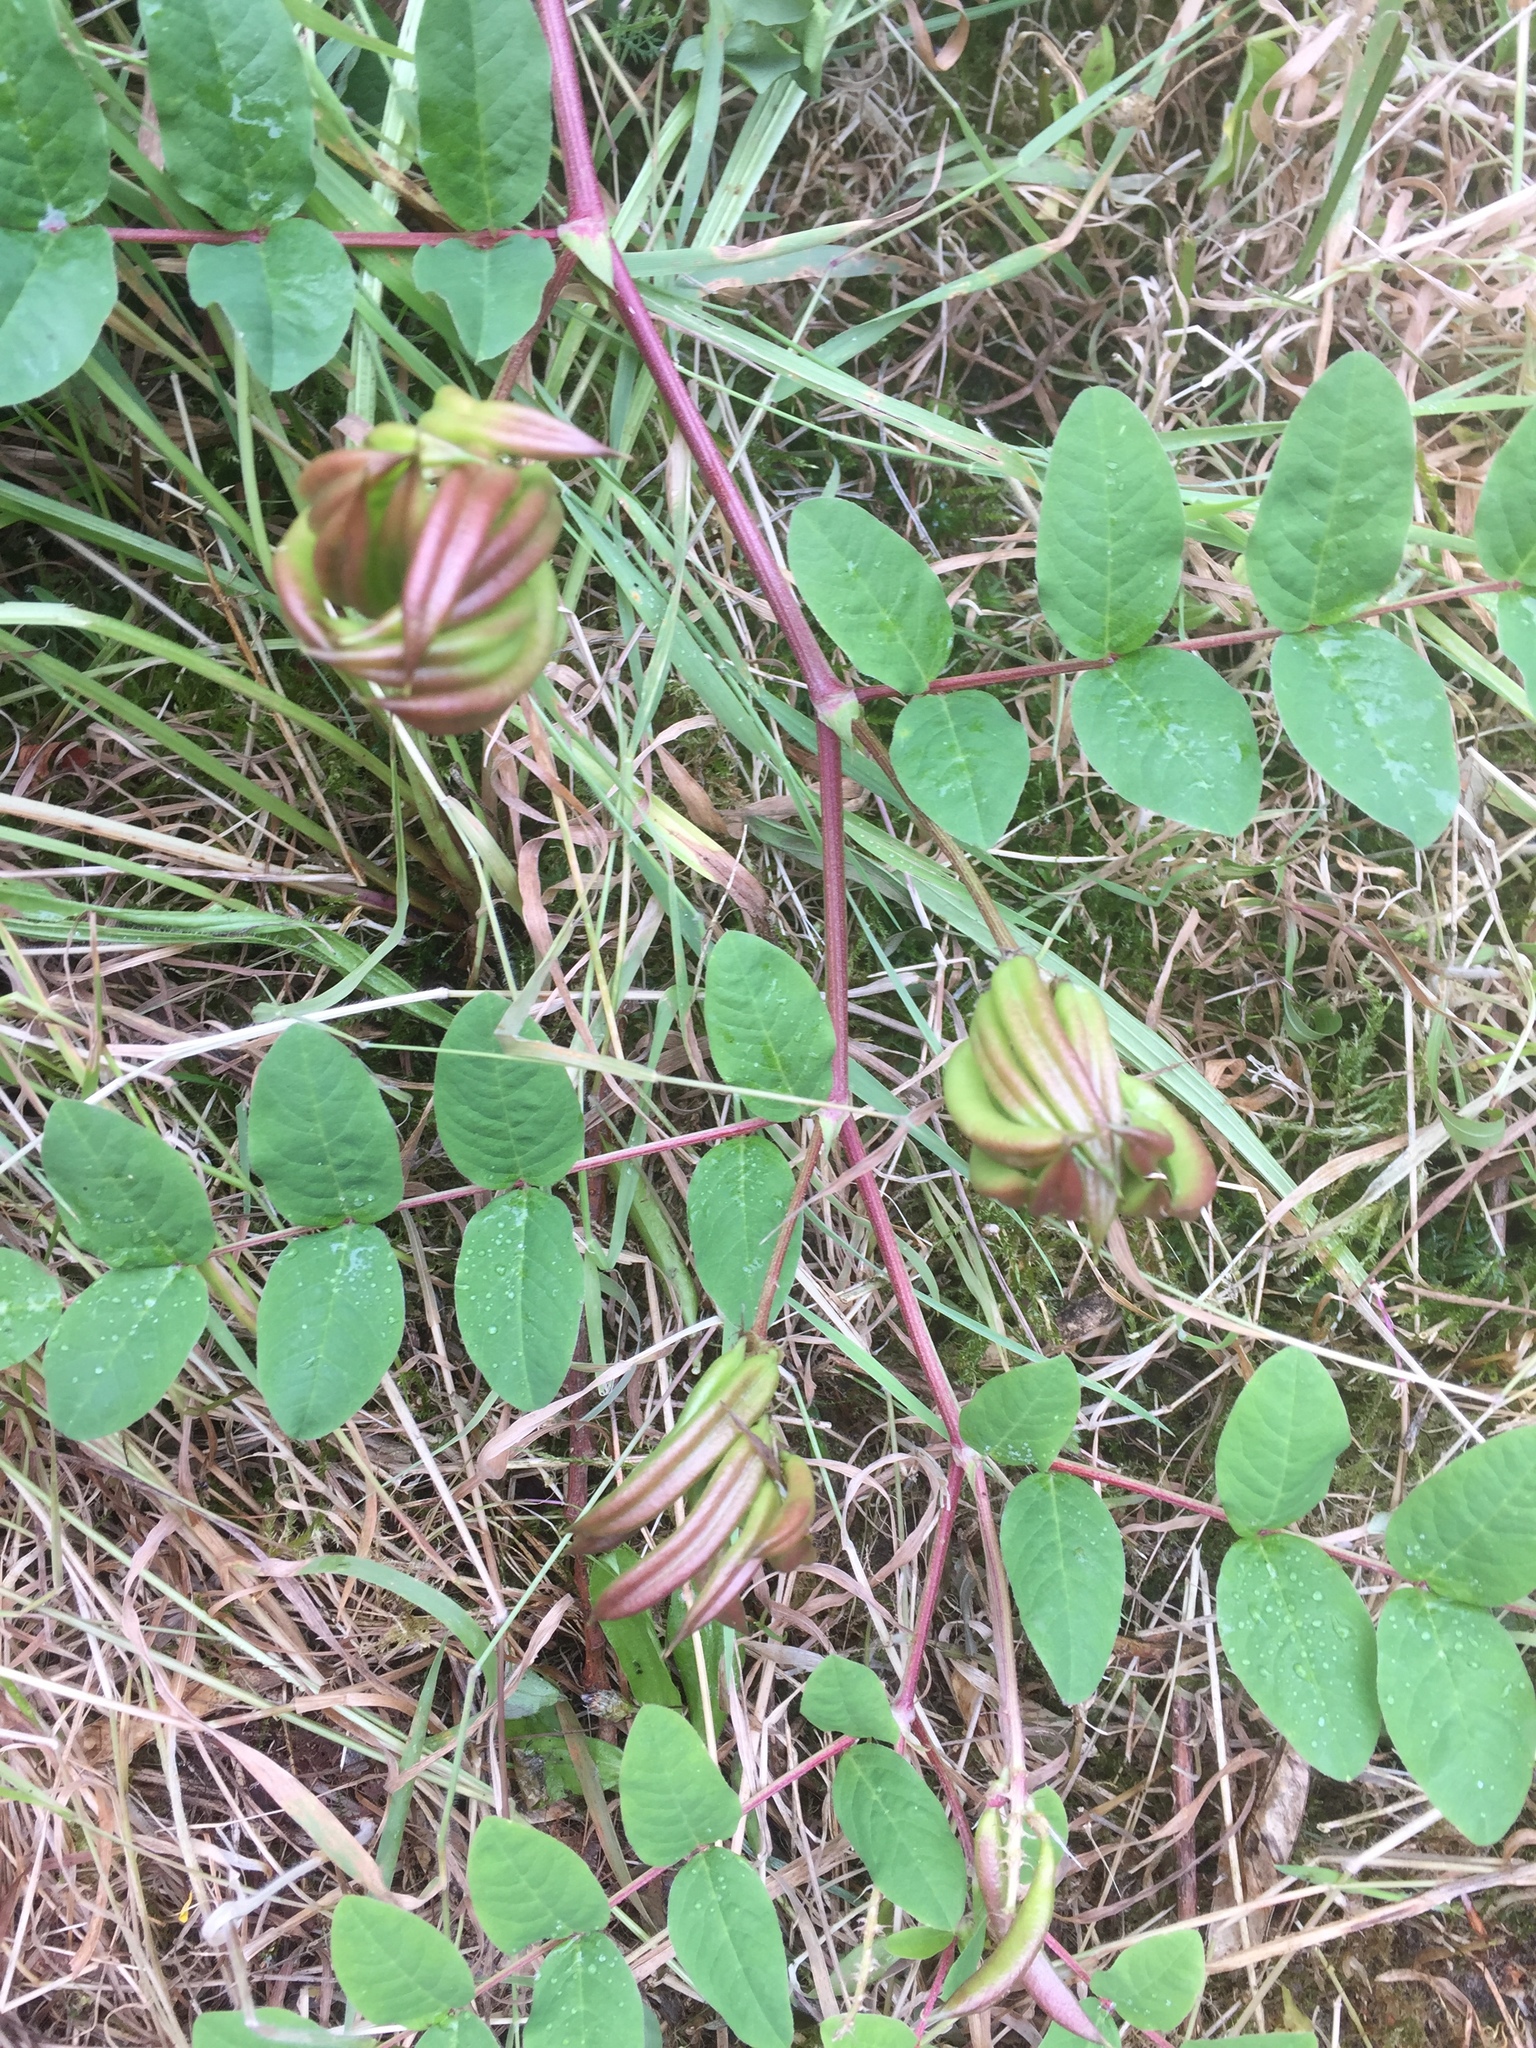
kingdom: Plantae
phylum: Tracheophyta
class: Magnoliopsida
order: Fabales
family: Fabaceae
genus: Astragalus
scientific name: Astragalus glycyphyllos
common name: Wild liquorice
